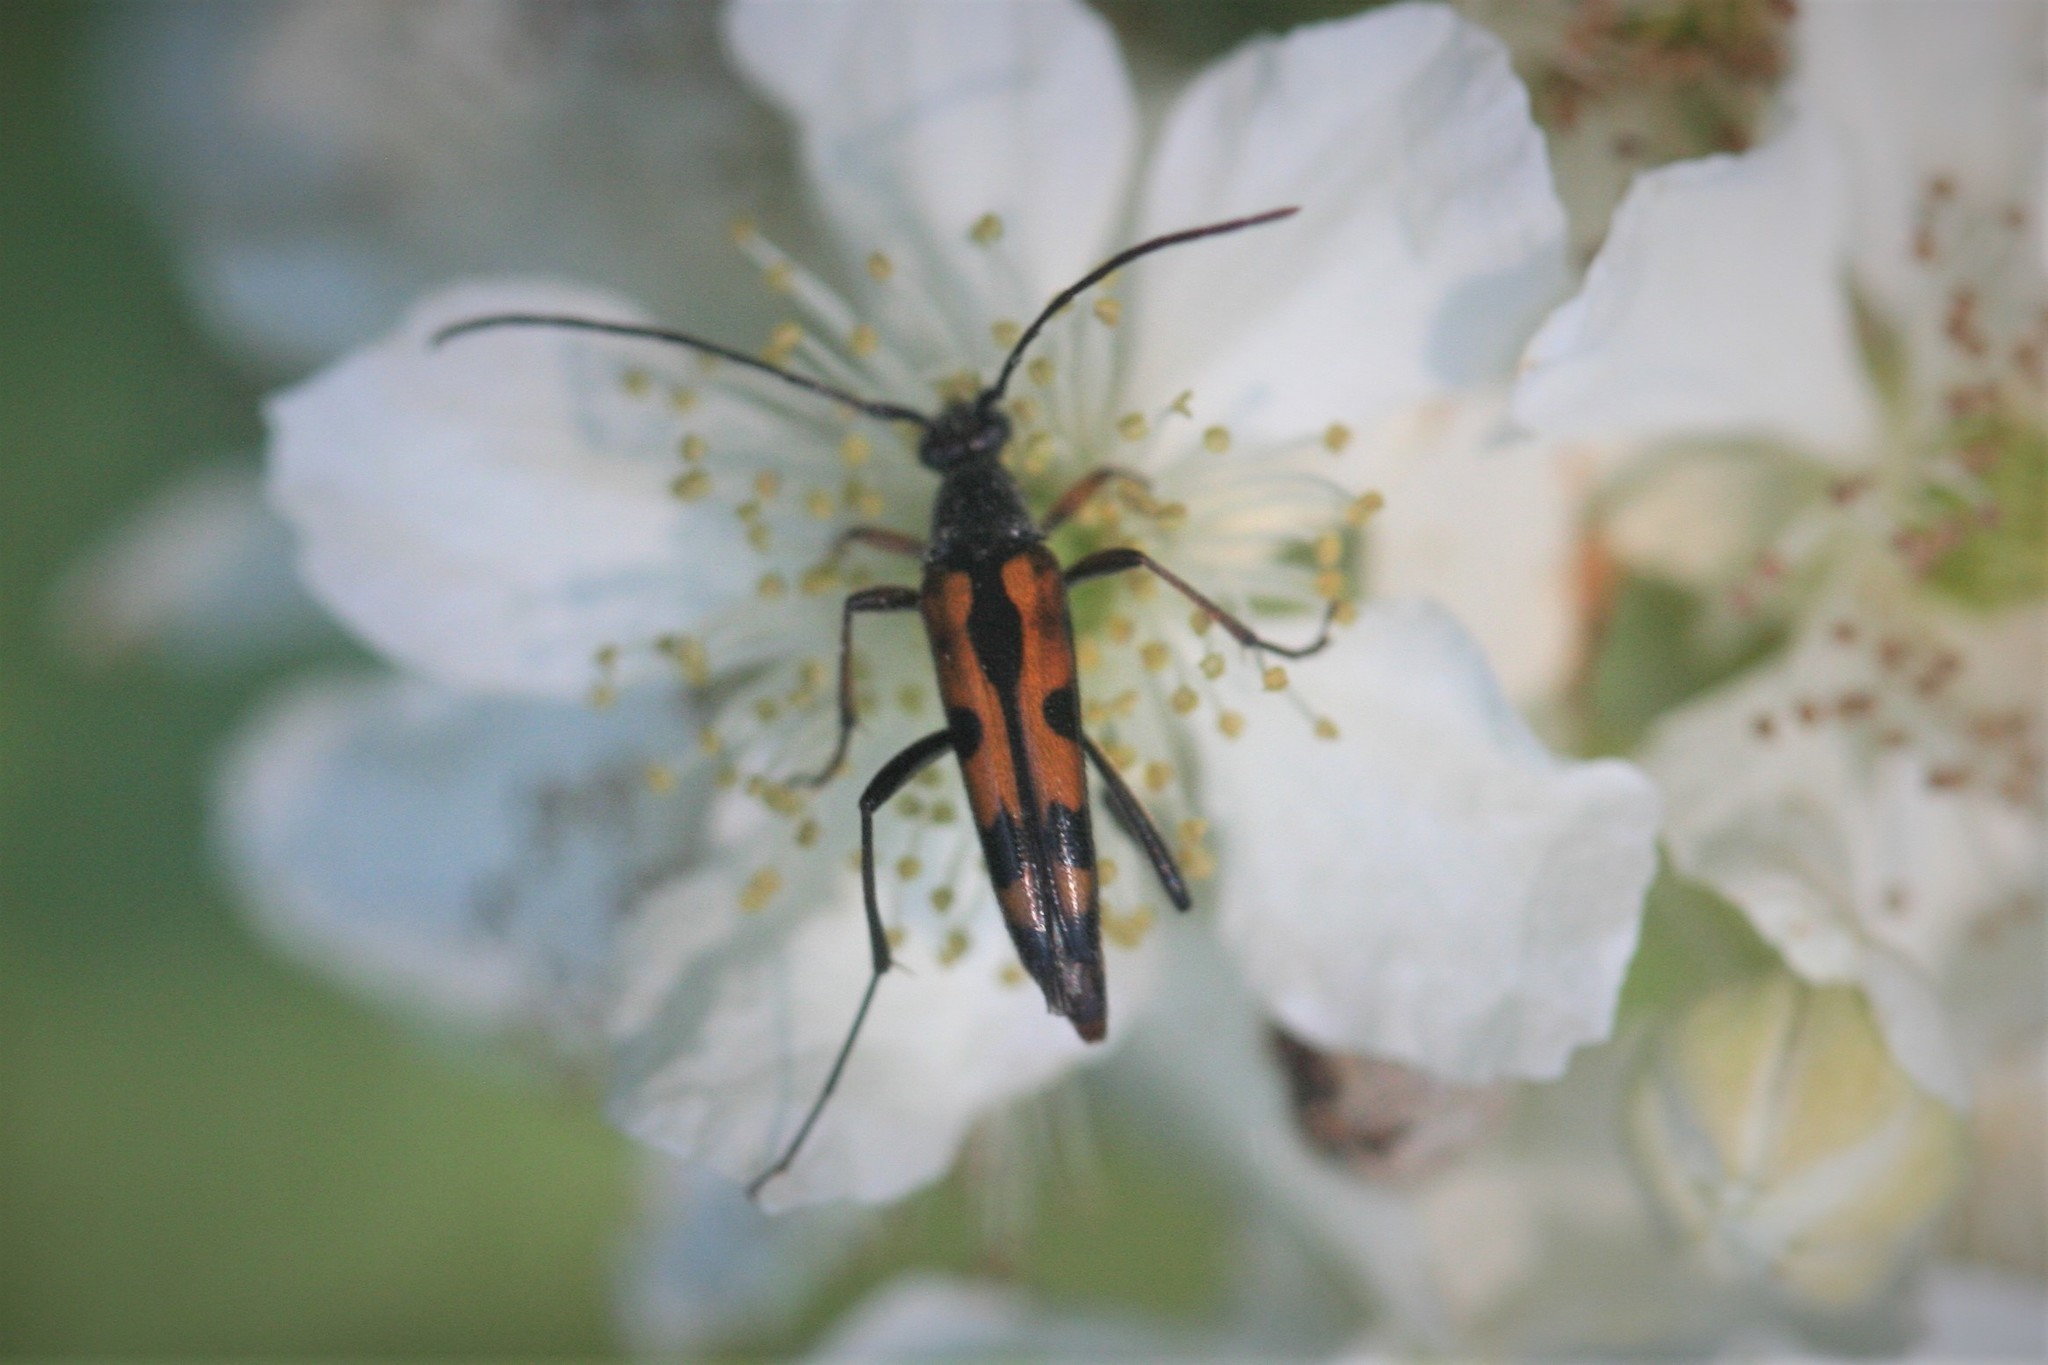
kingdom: Animalia
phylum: Arthropoda
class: Insecta
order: Coleoptera
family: Cerambycidae
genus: Stenurella
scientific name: Stenurella septempunctata
